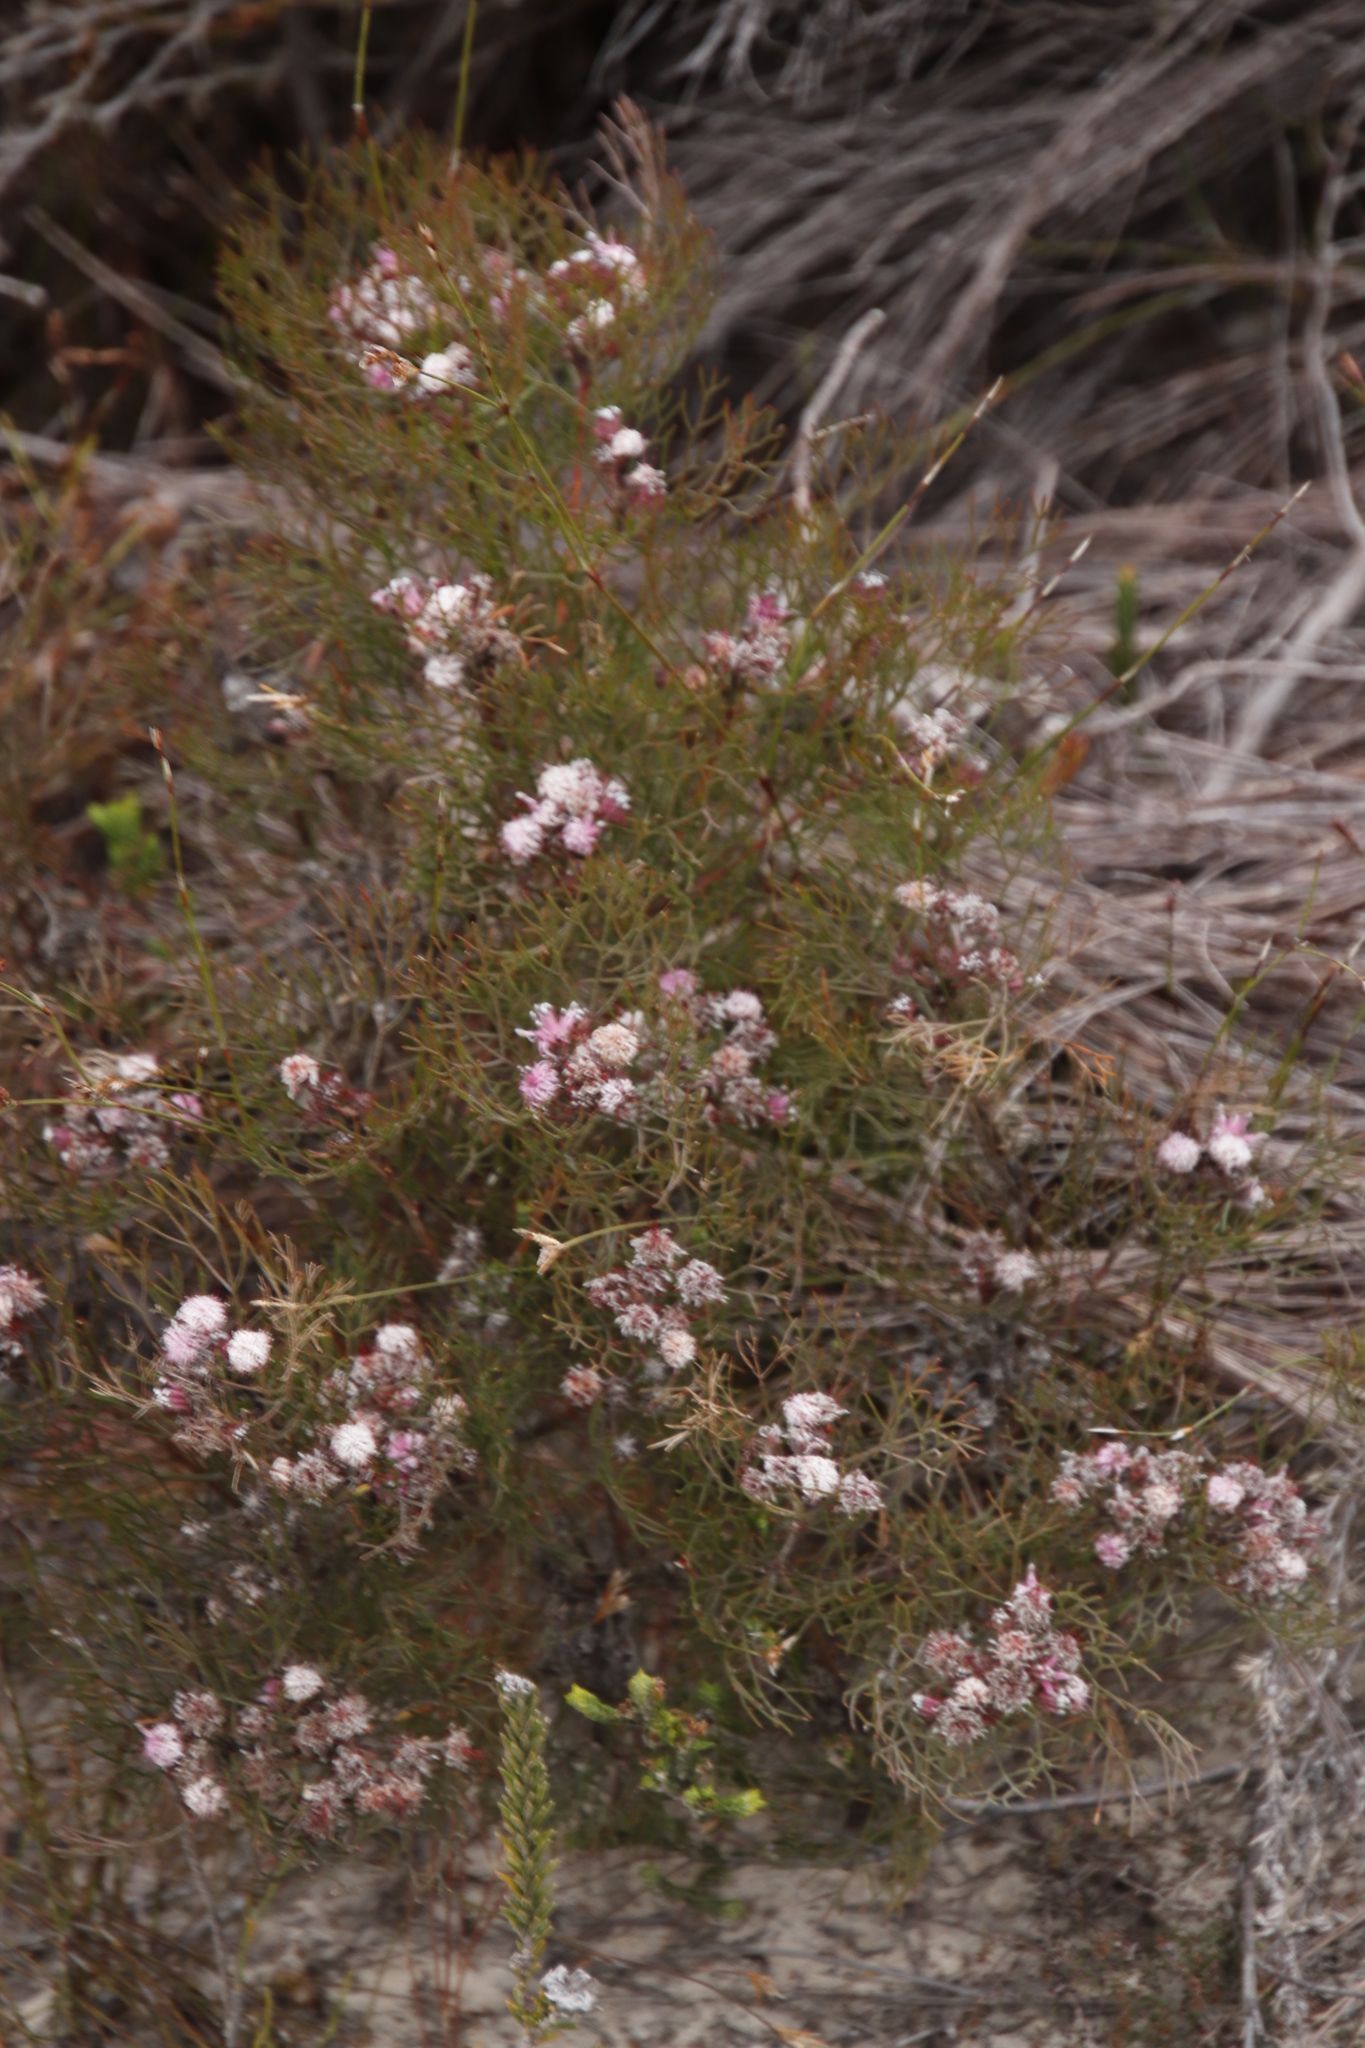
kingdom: Plantae
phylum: Tracheophyta
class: Magnoliopsida
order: Proteales
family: Proteaceae
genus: Serruria
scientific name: Serruria fasciflora
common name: Common pin spiderhead
